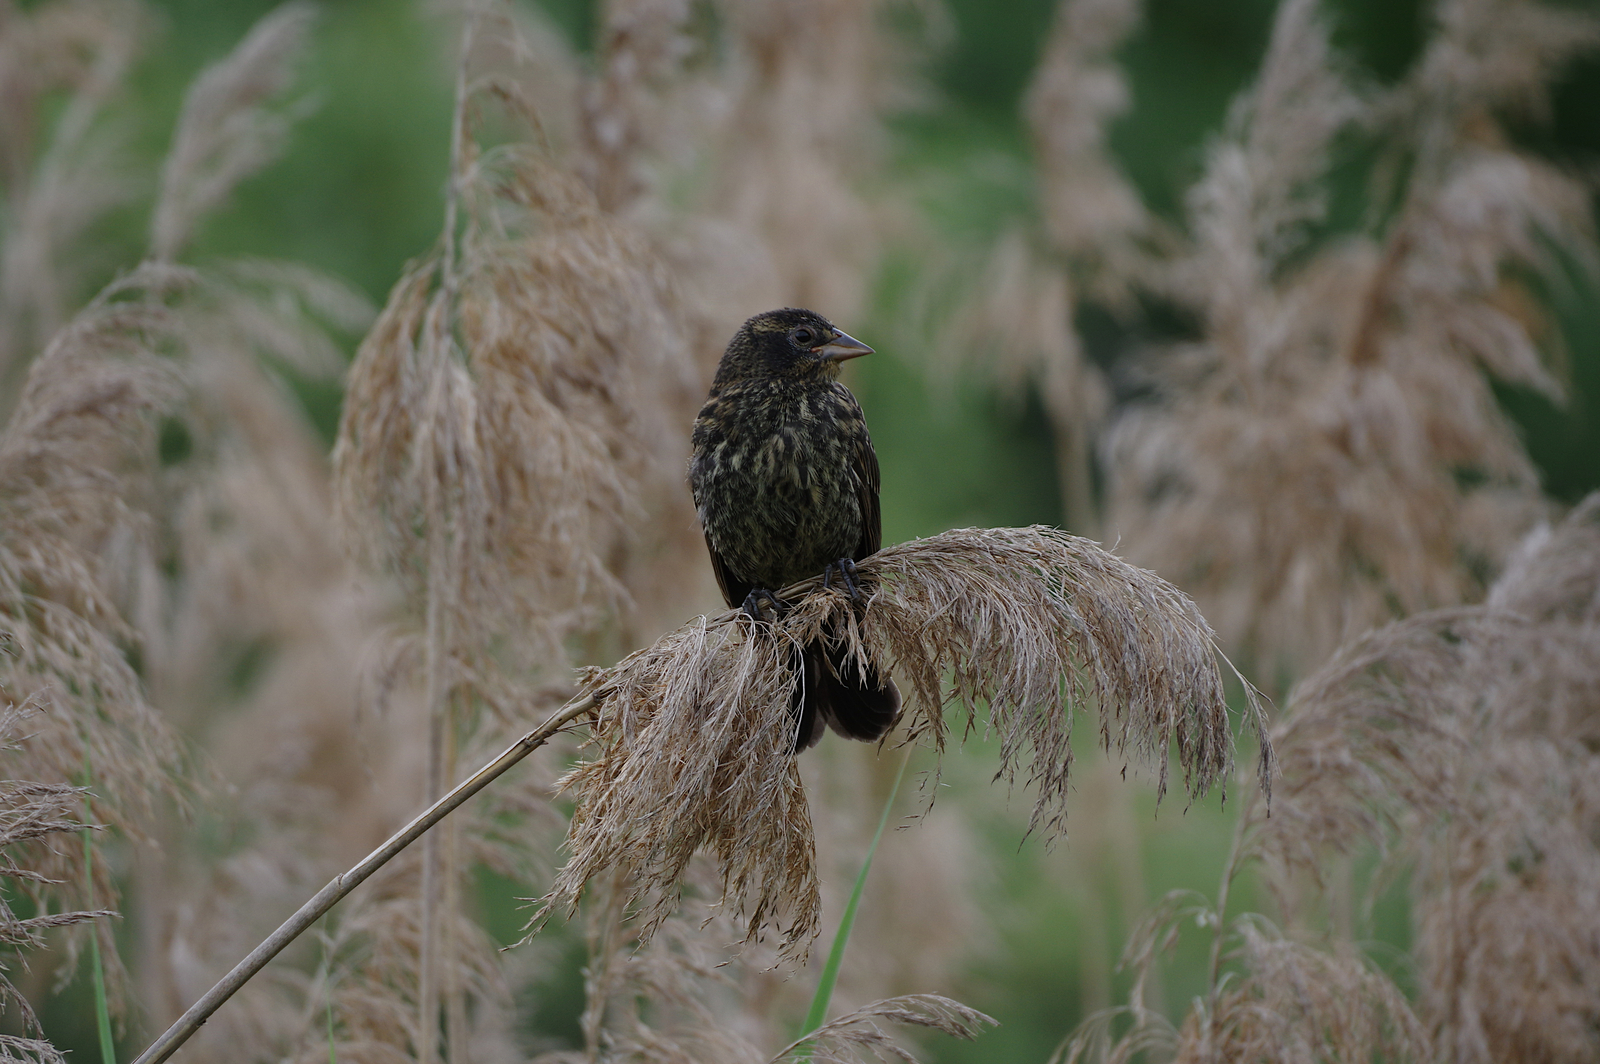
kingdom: Animalia
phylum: Chordata
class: Aves
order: Passeriformes
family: Icteridae
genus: Agelaius
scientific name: Agelaius phoeniceus
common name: Red-winged blackbird
